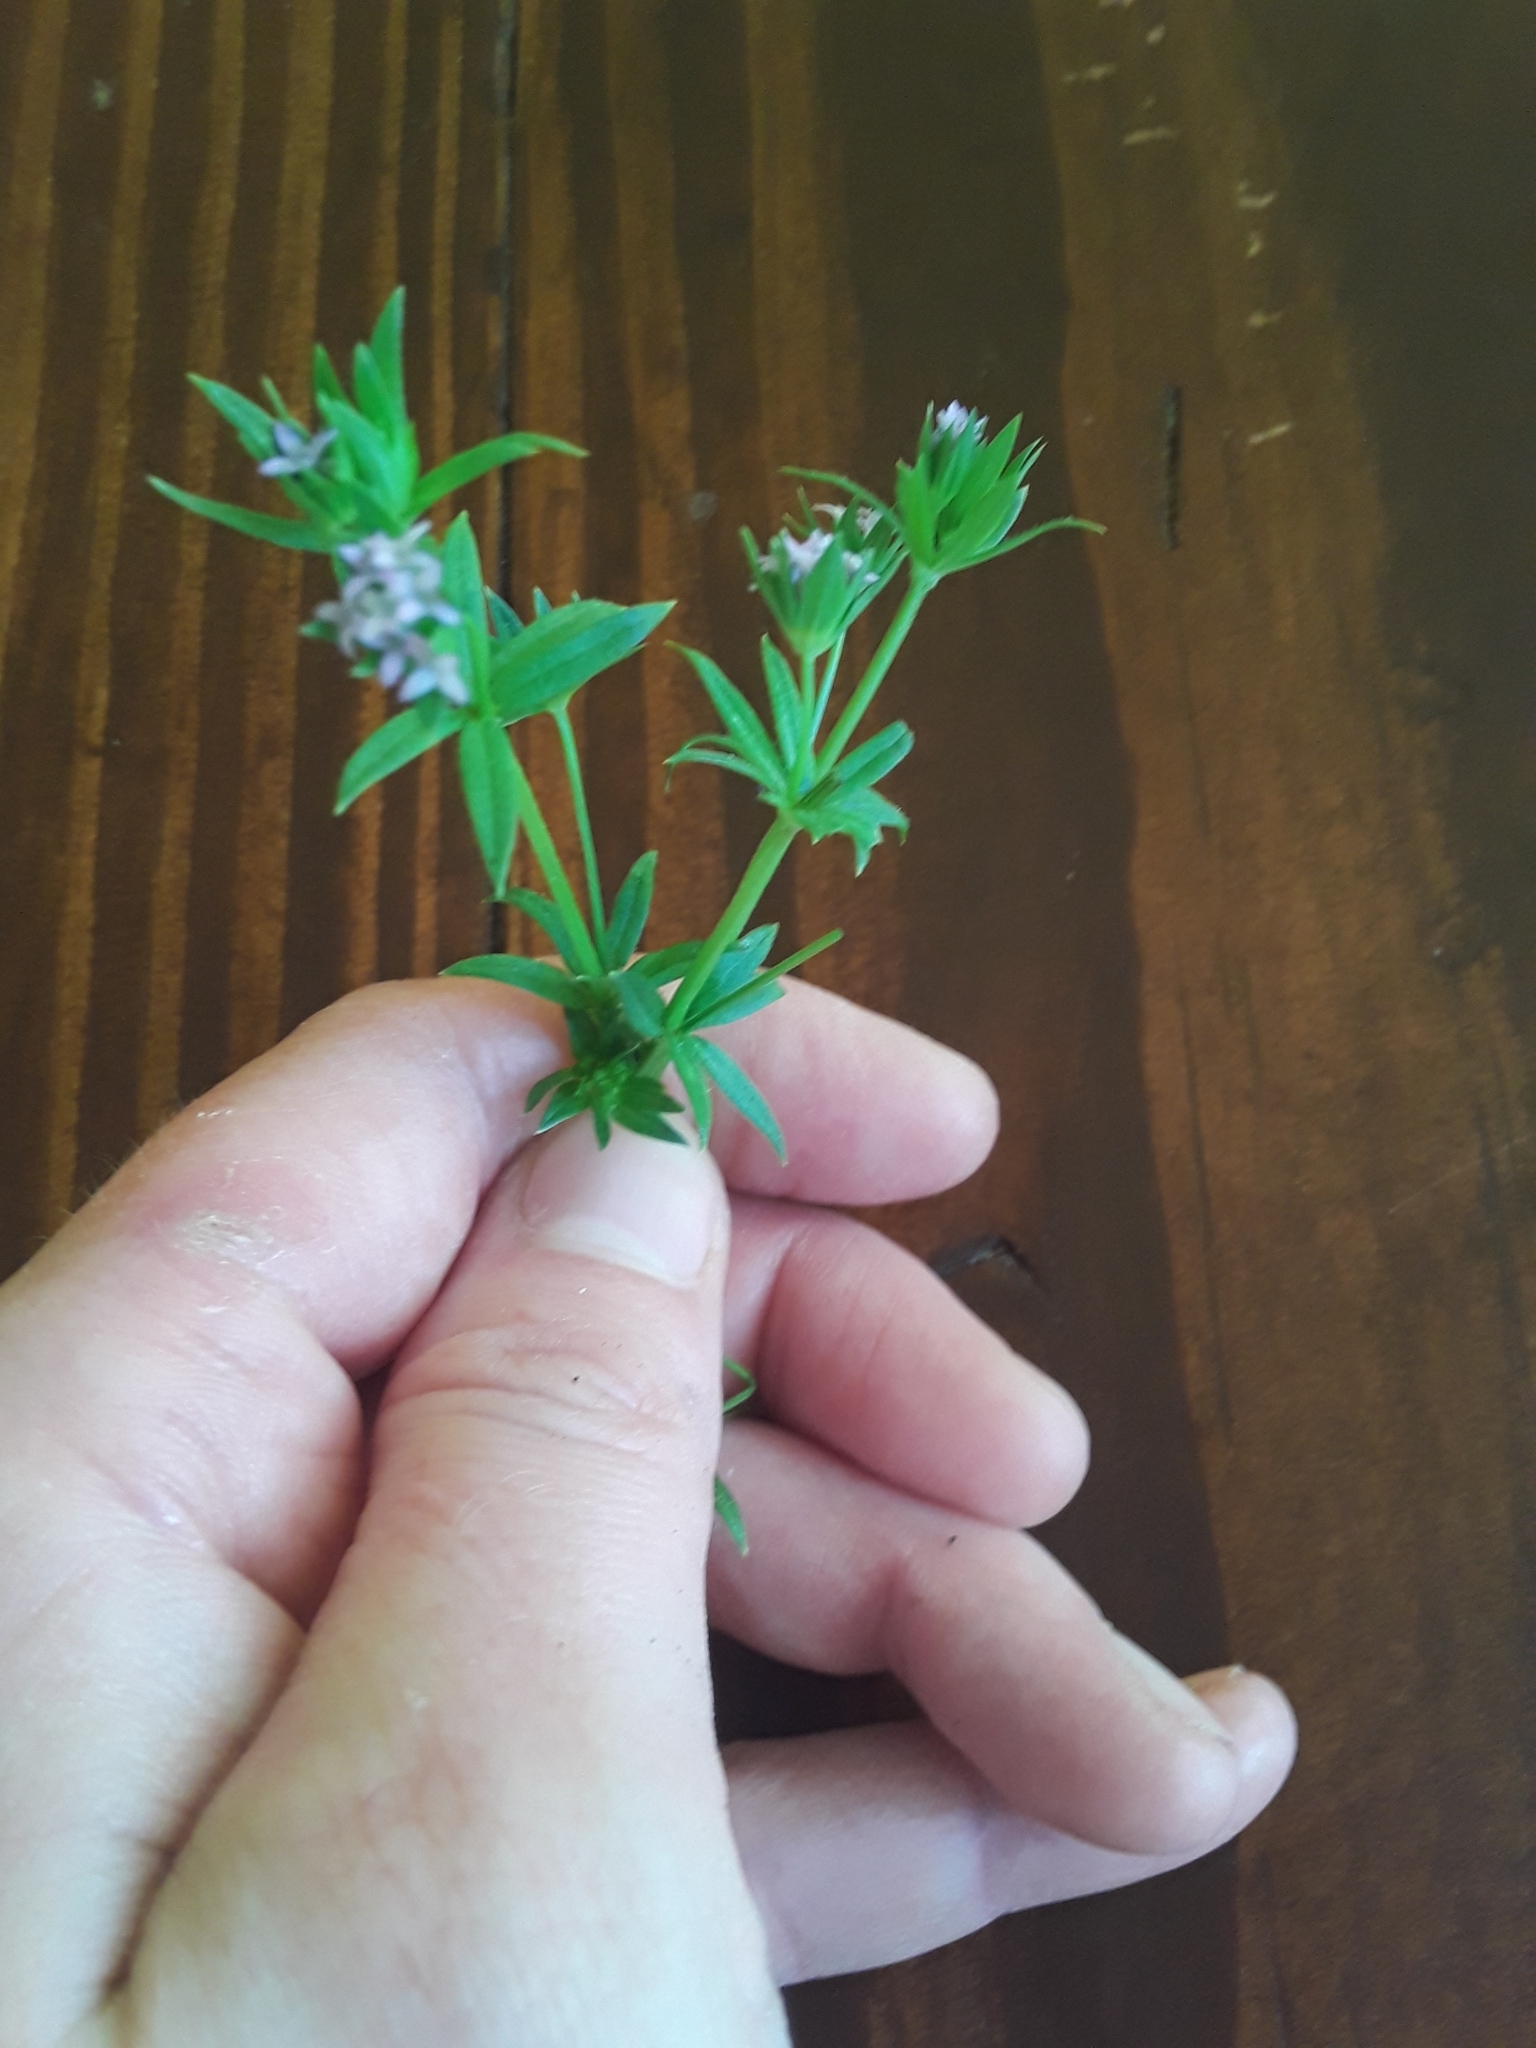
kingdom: Plantae
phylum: Tracheophyta
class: Magnoliopsida
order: Gentianales
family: Rubiaceae
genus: Sherardia
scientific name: Sherardia arvensis
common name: Field madder
